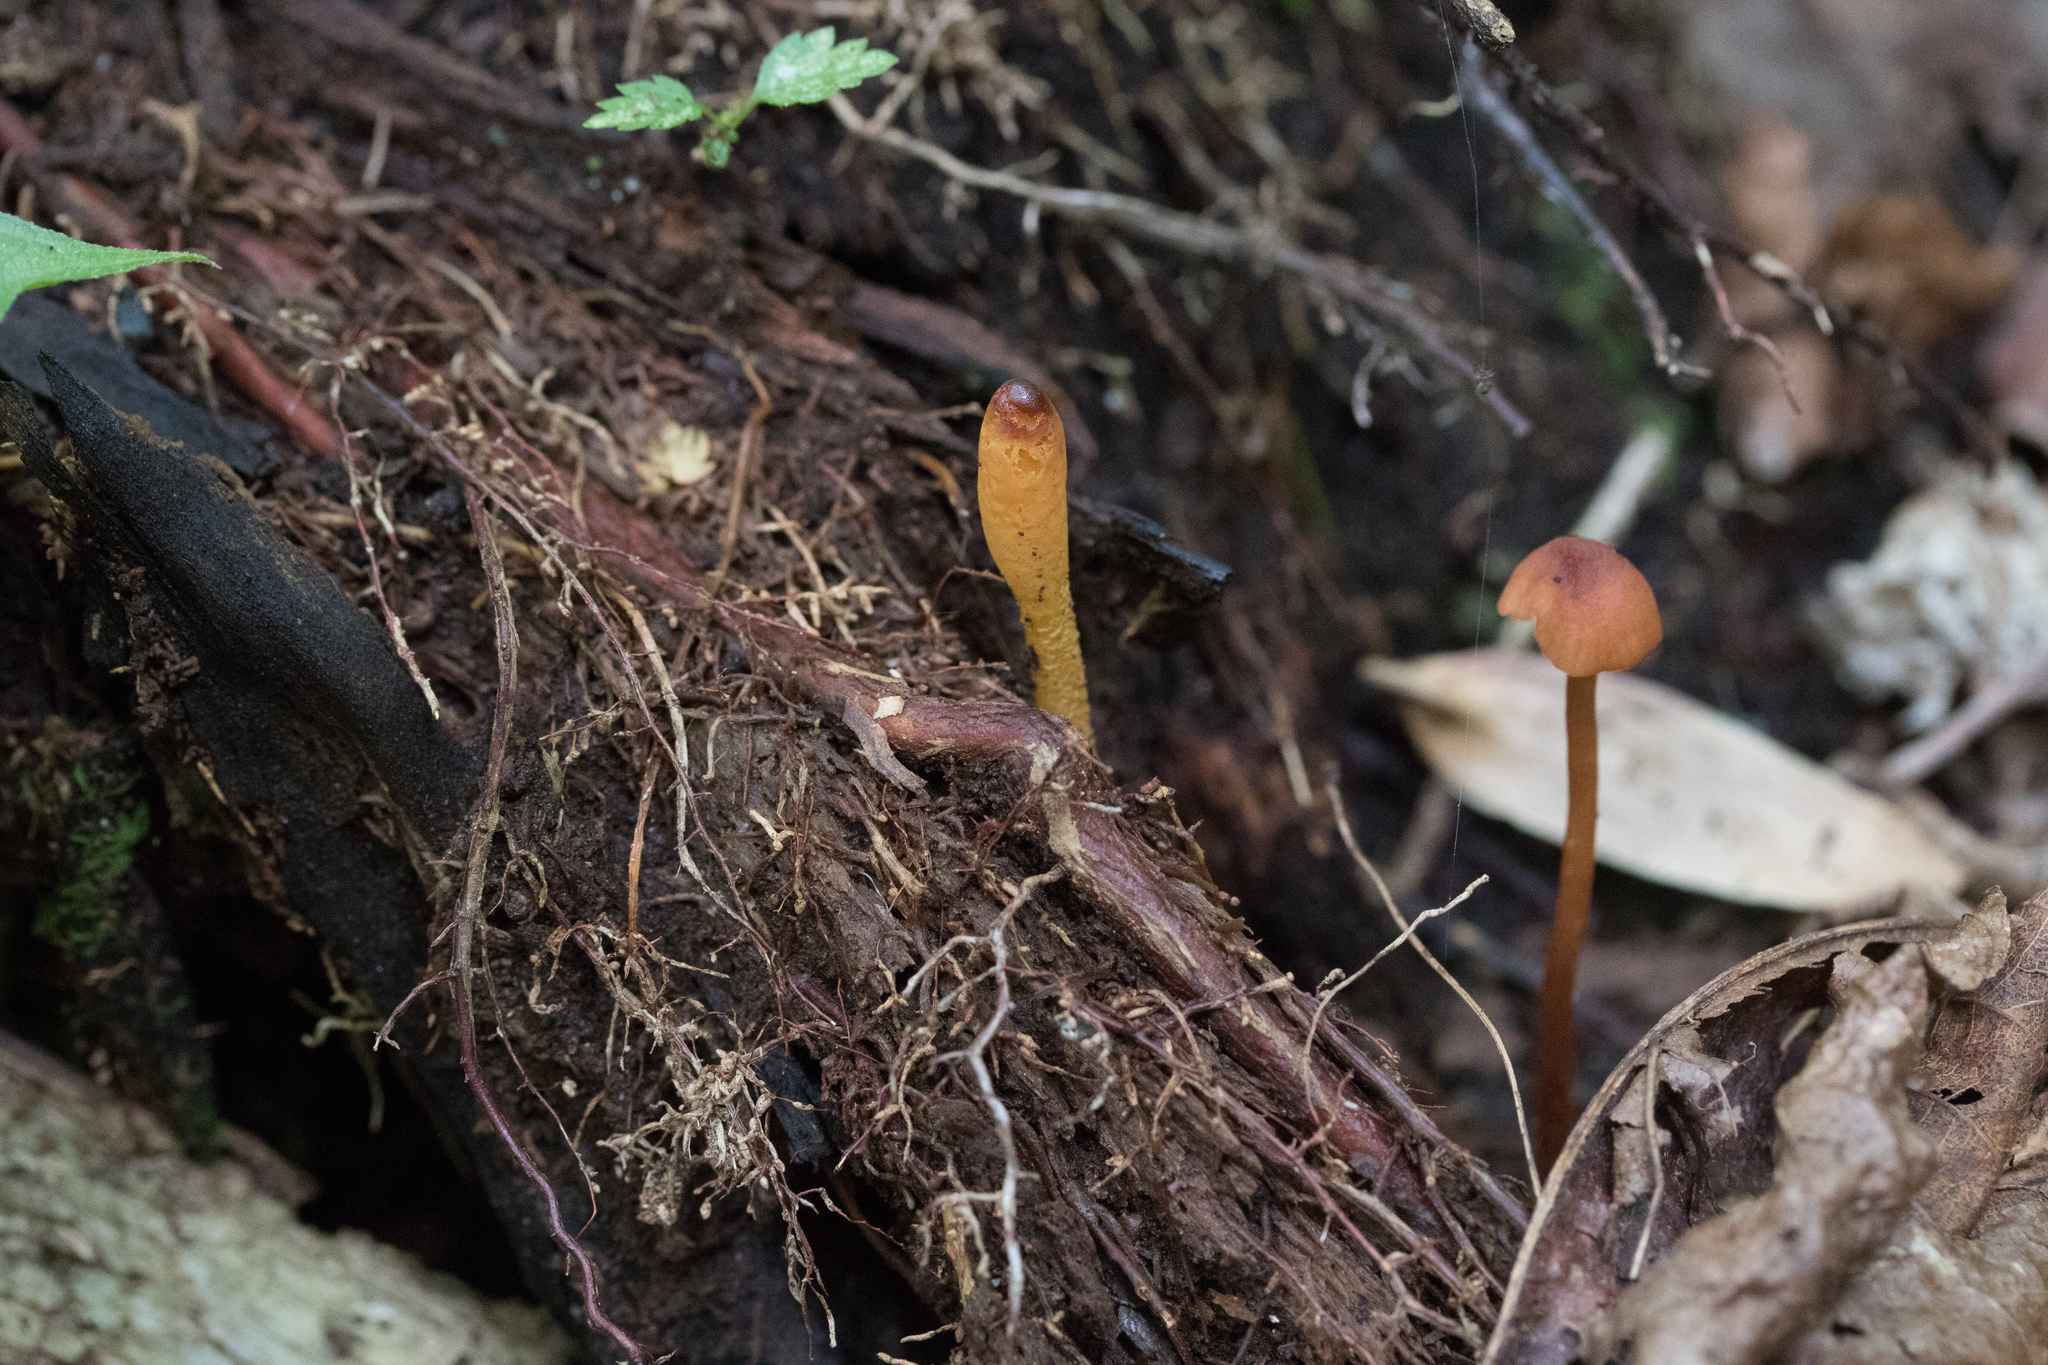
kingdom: Fungi
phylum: Ascomycota
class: Leotiomycetes
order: Leotiales
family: Leotiaceae
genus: Microglossum
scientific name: Microglossum rufum
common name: Orange earthtongue
